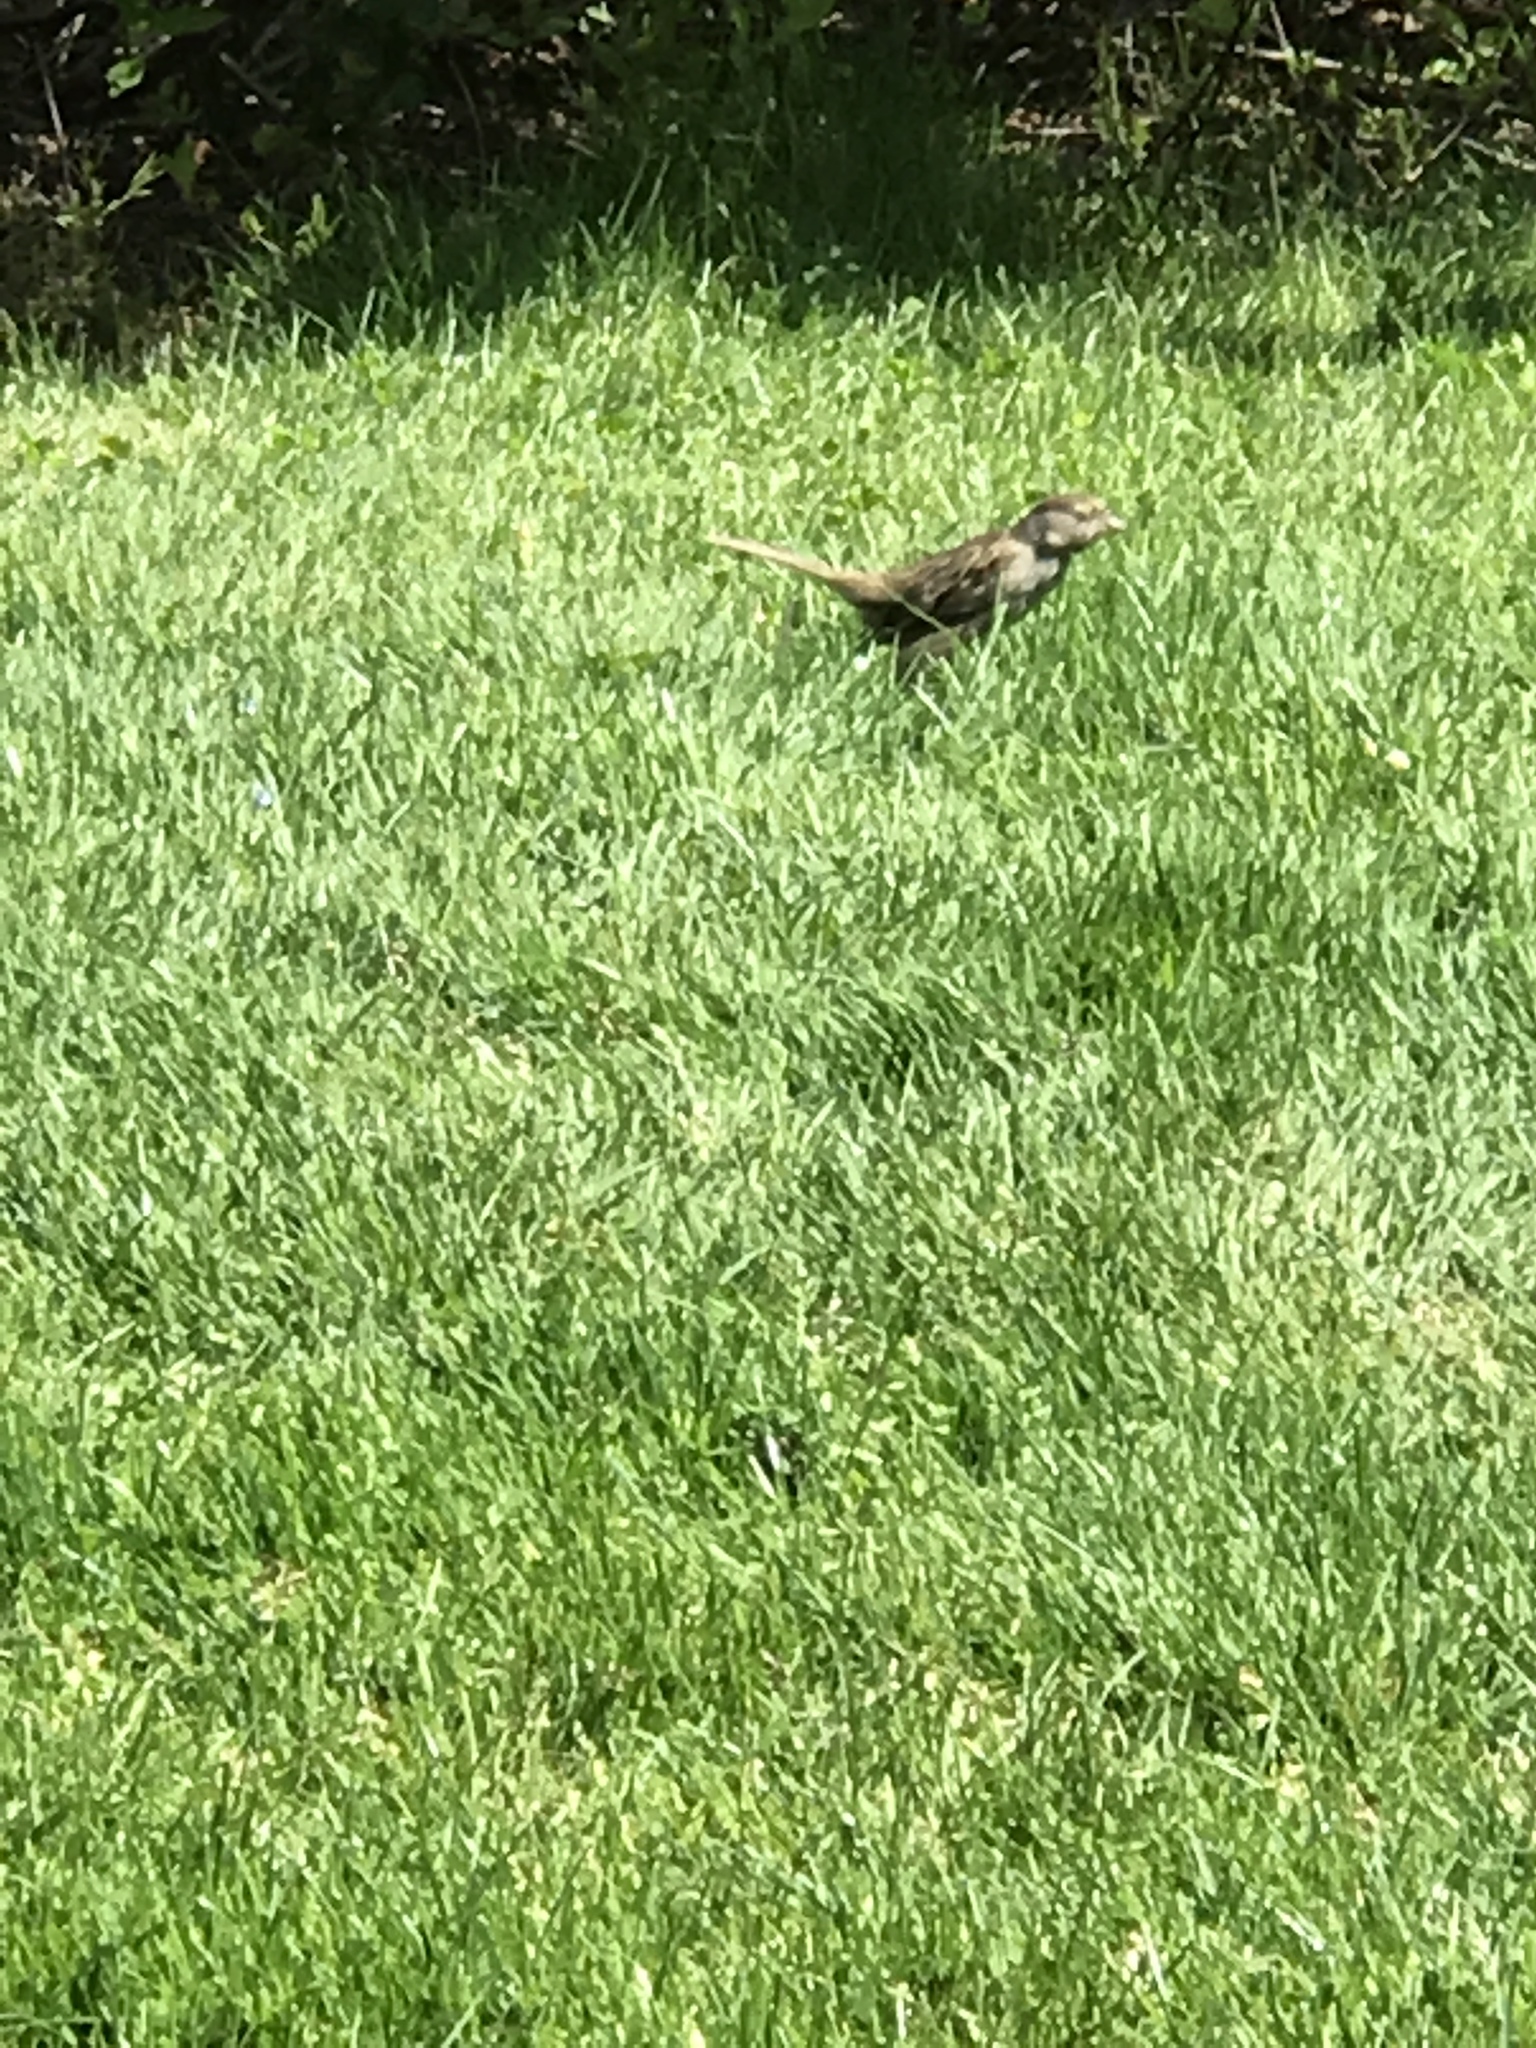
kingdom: Animalia
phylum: Chordata
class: Aves
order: Passeriformes
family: Passerellidae
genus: Zonotrichia
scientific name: Zonotrichia atricapilla
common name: Golden-crowned sparrow
